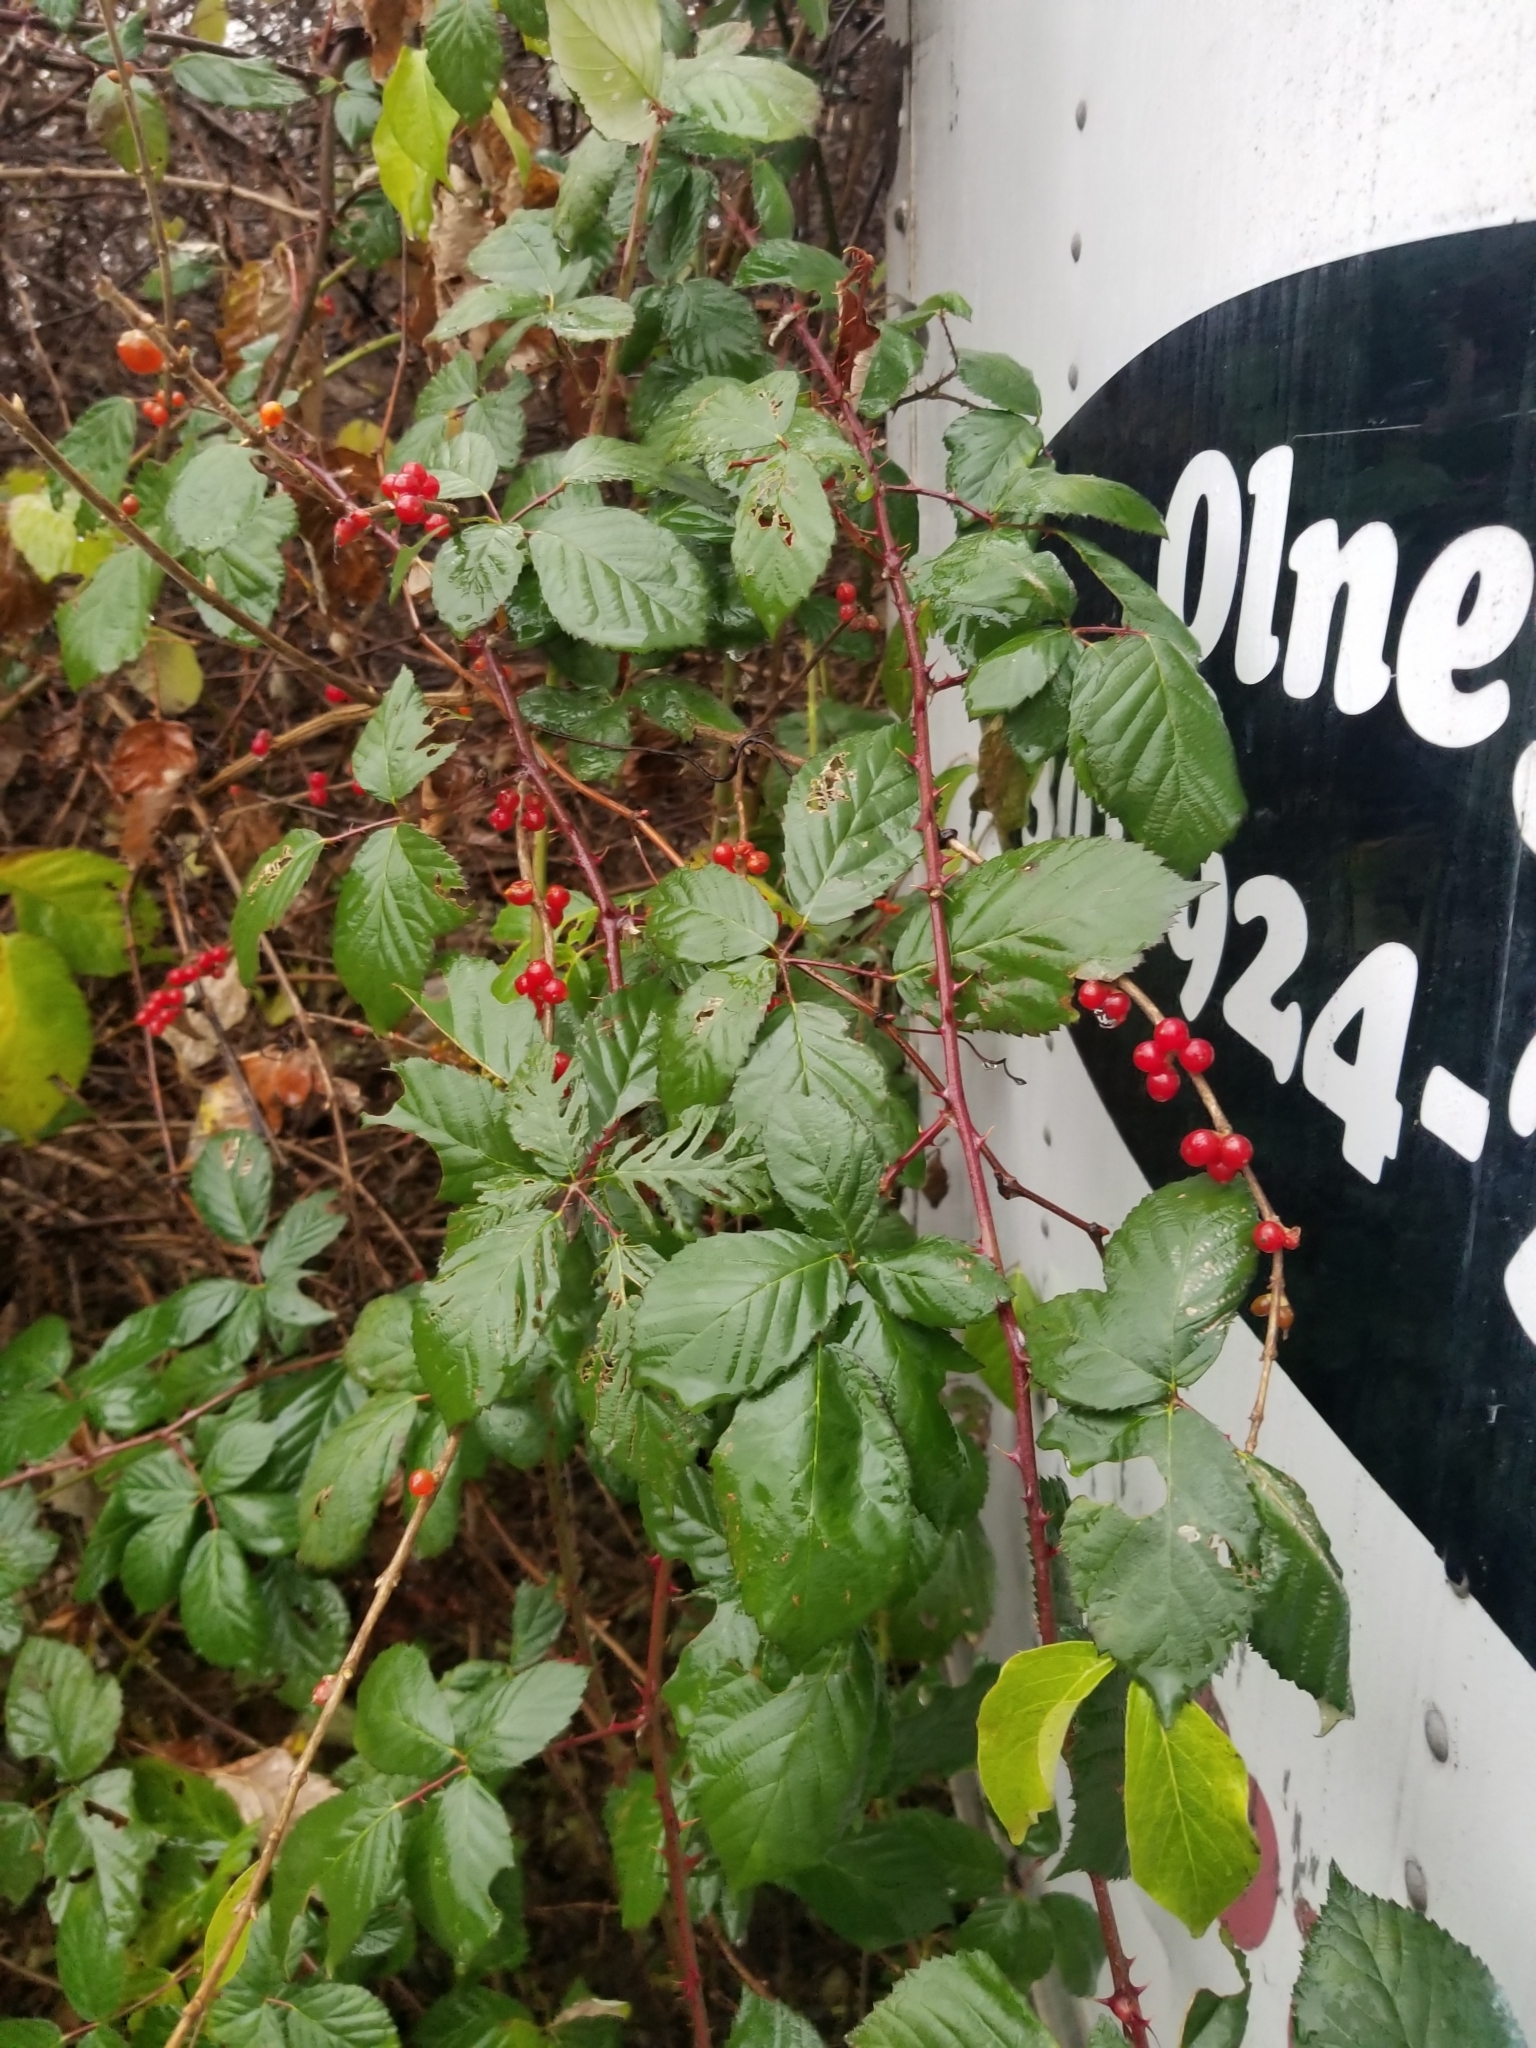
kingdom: Plantae
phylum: Tracheophyta
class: Magnoliopsida
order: Dipsacales
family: Caprifoliaceae
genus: Lonicera
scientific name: Lonicera maackii
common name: Amur honeysuckle
